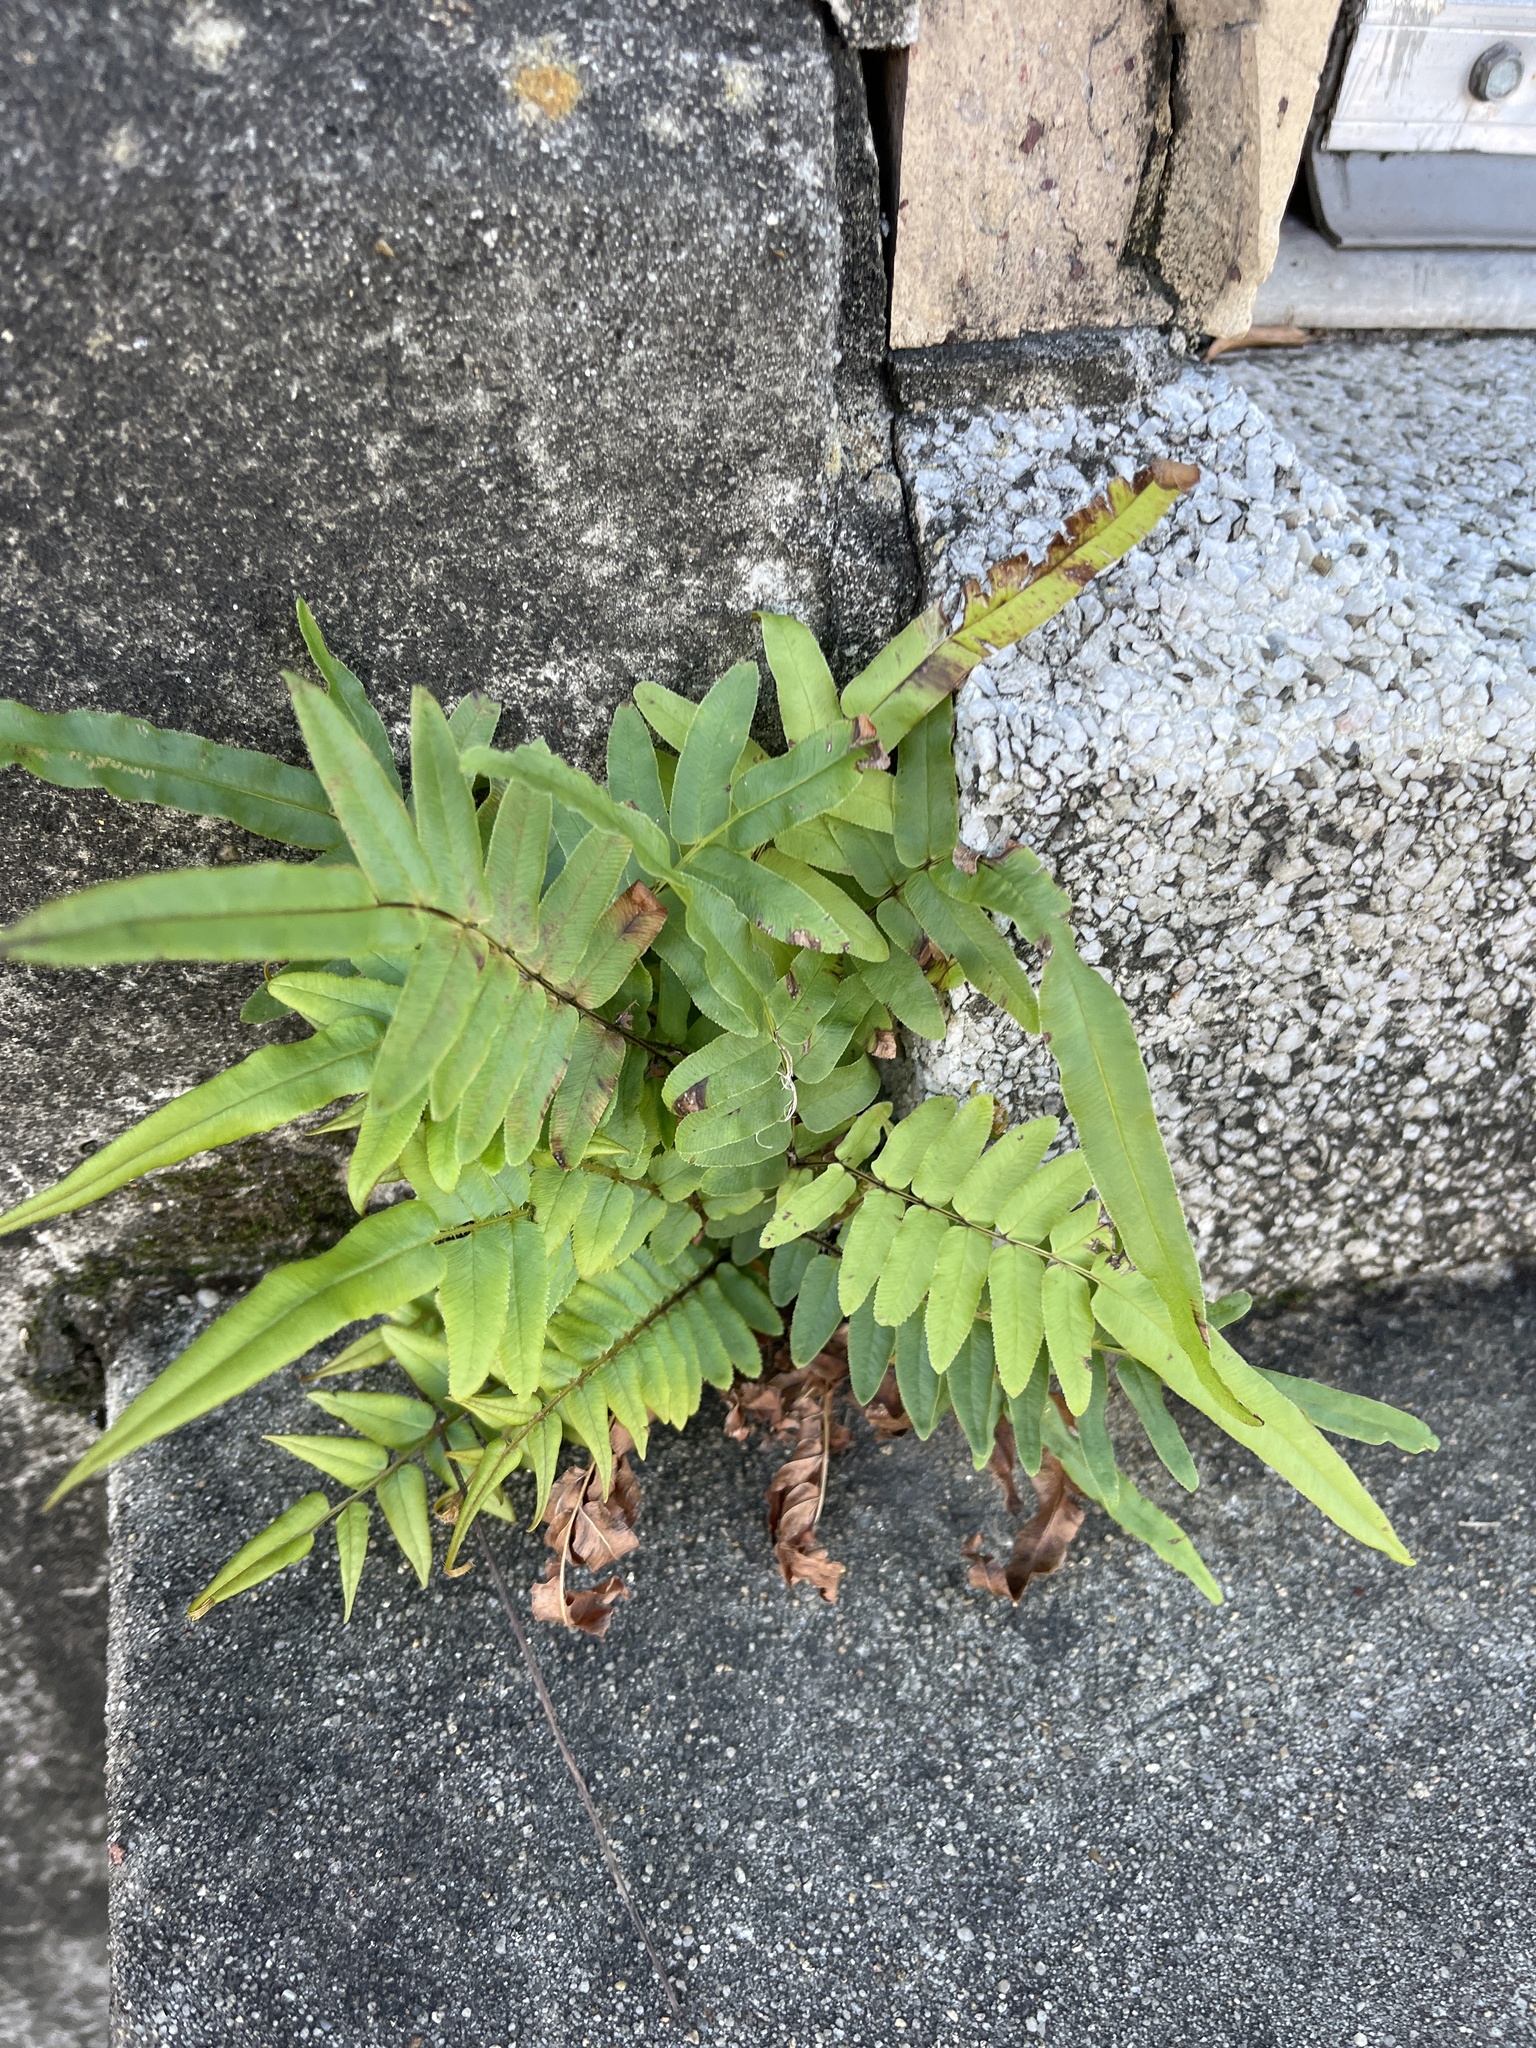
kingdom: Plantae
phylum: Tracheophyta
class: Polypodiopsida
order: Polypodiales
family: Pteridaceae
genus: Pteris
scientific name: Pteris vittata
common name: Ladder brake
